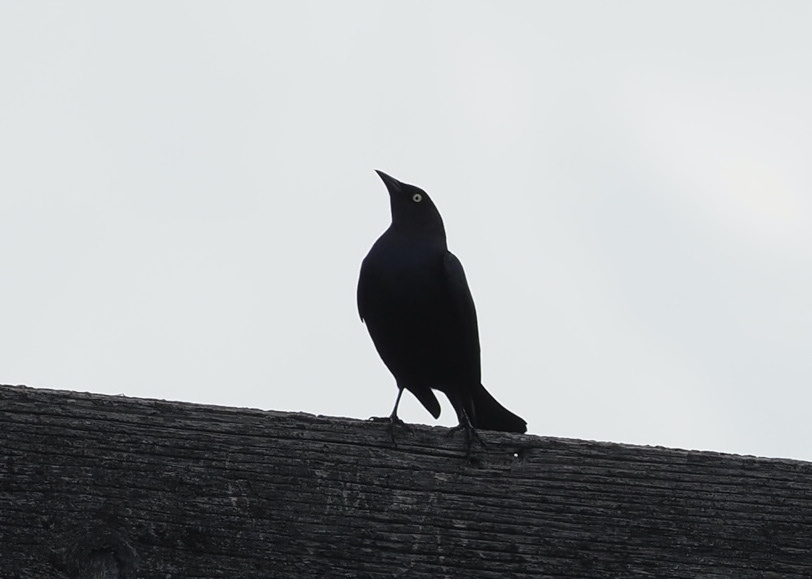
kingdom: Animalia
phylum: Chordata
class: Aves
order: Passeriformes
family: Icteridae
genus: Euphagus
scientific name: Euphagus cyanocephalus
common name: Brewer's blackbird
